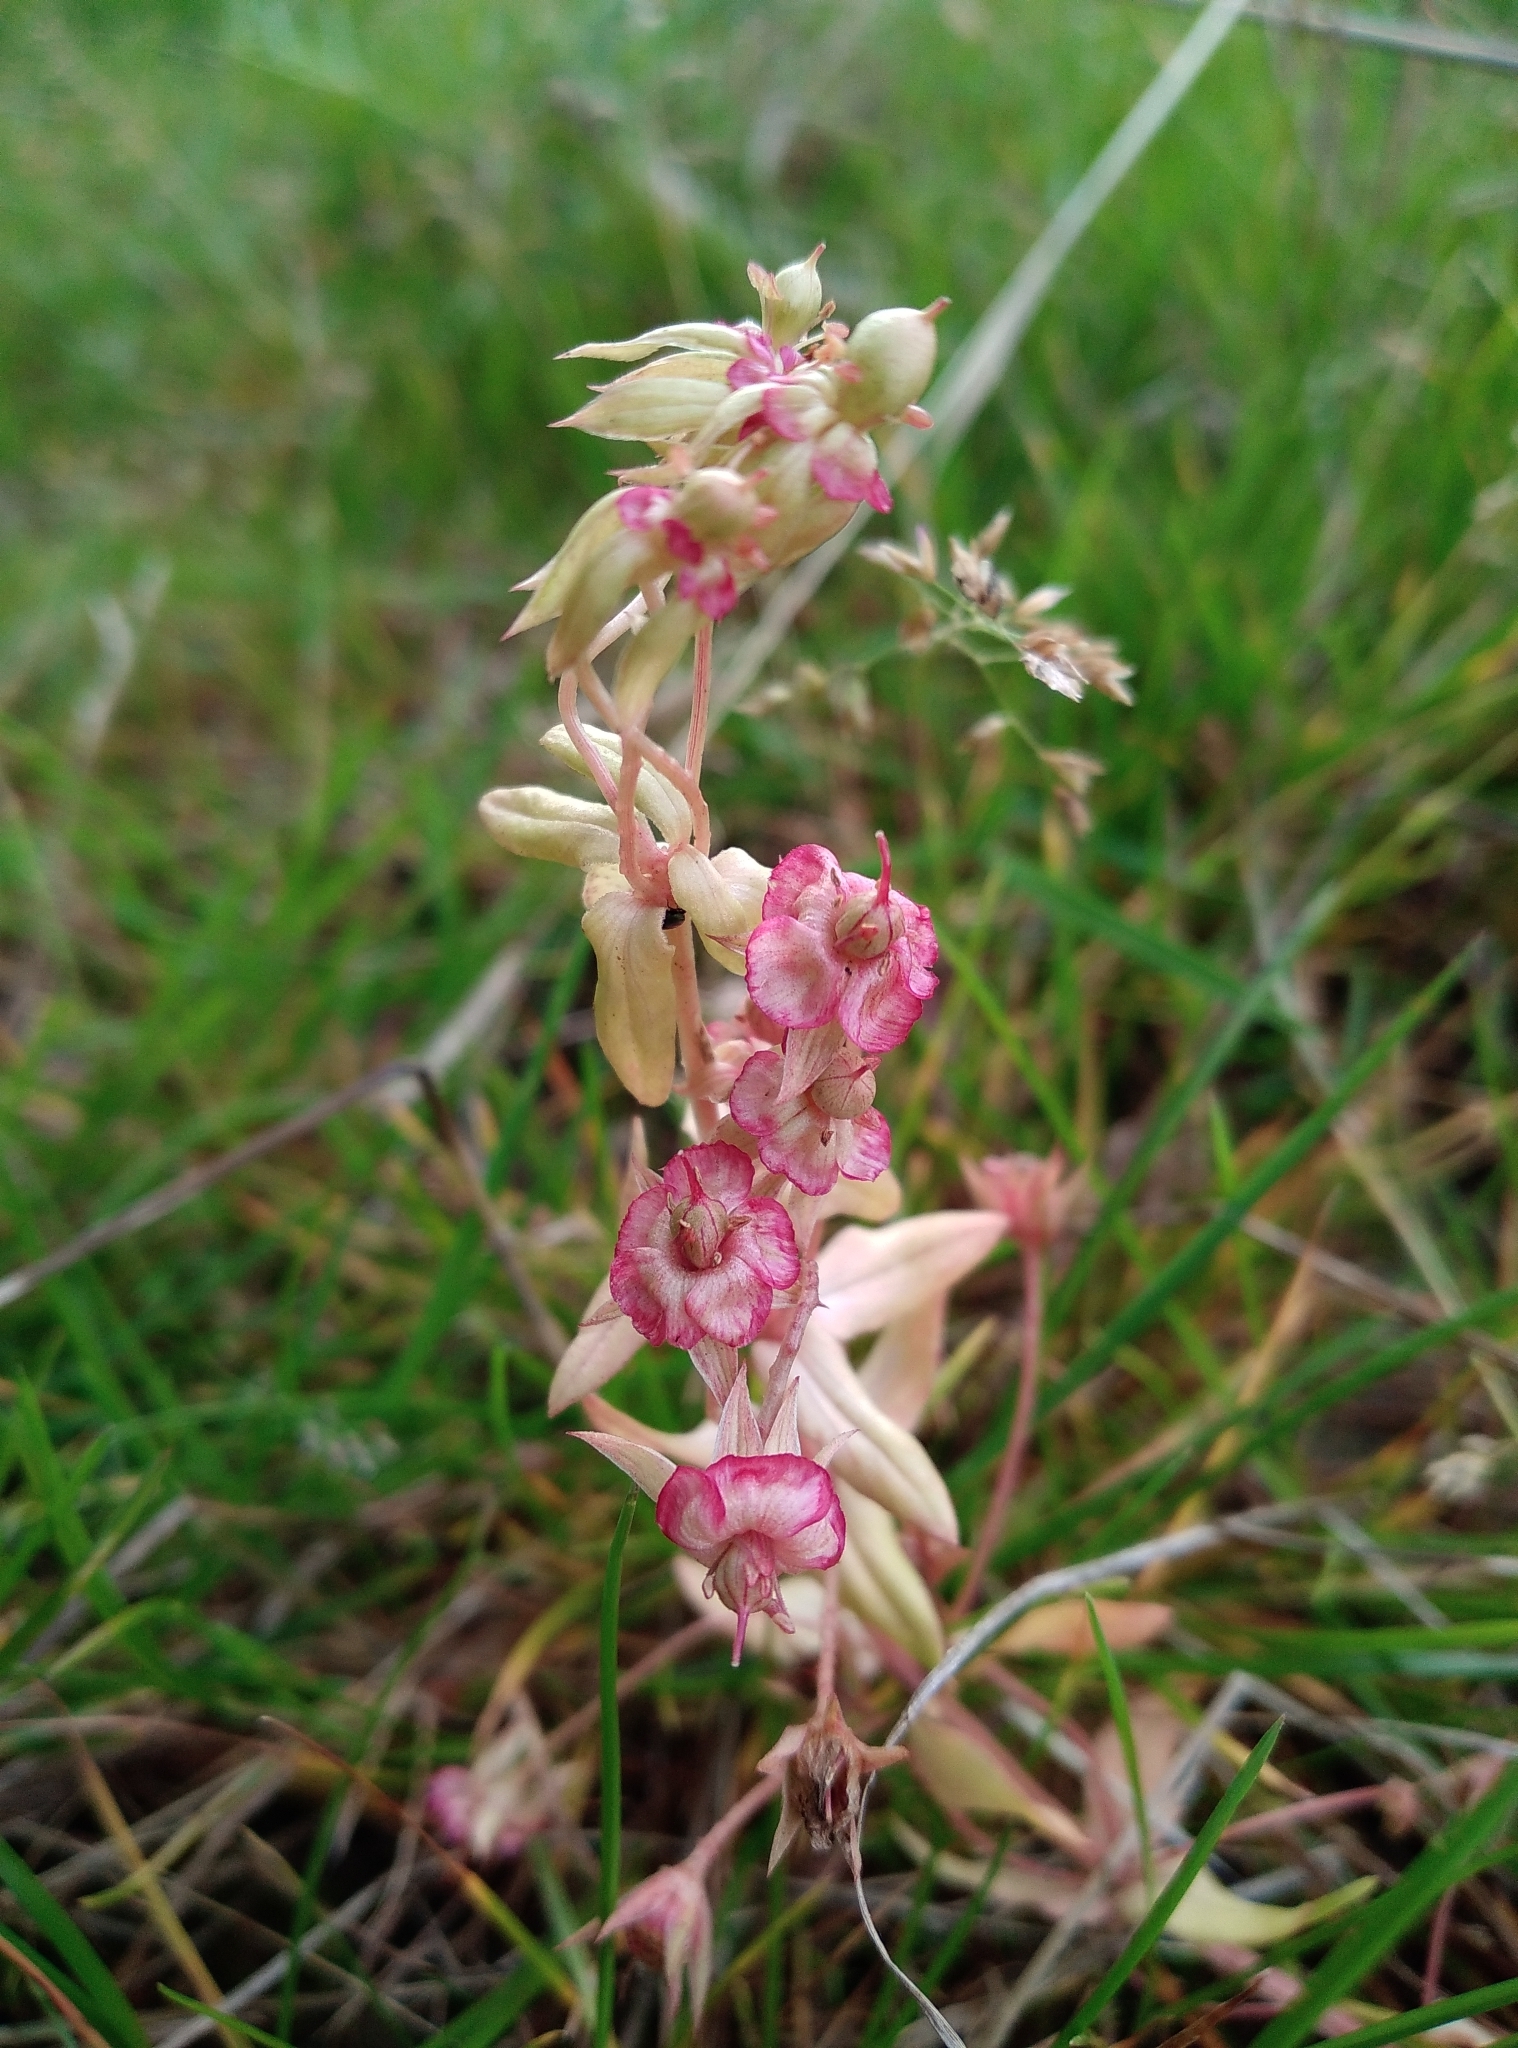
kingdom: Plantae
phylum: Tracheophyta
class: Magnoliopsida
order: Ericales
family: Primulaceae
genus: Lysimachia
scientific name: Lysimachia arvensis
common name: Scarlet pimpernel
